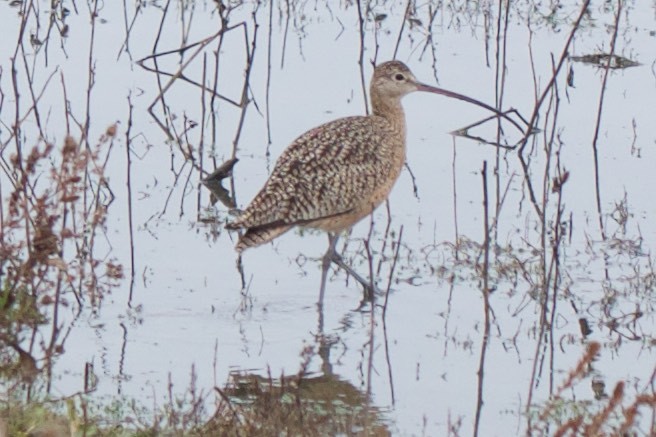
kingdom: Animalia
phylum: Chordata
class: Aves
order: Charadriiformes
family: Scolopacidae
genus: Numenius
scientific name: Numenius americanus
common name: Long-billed curlew
